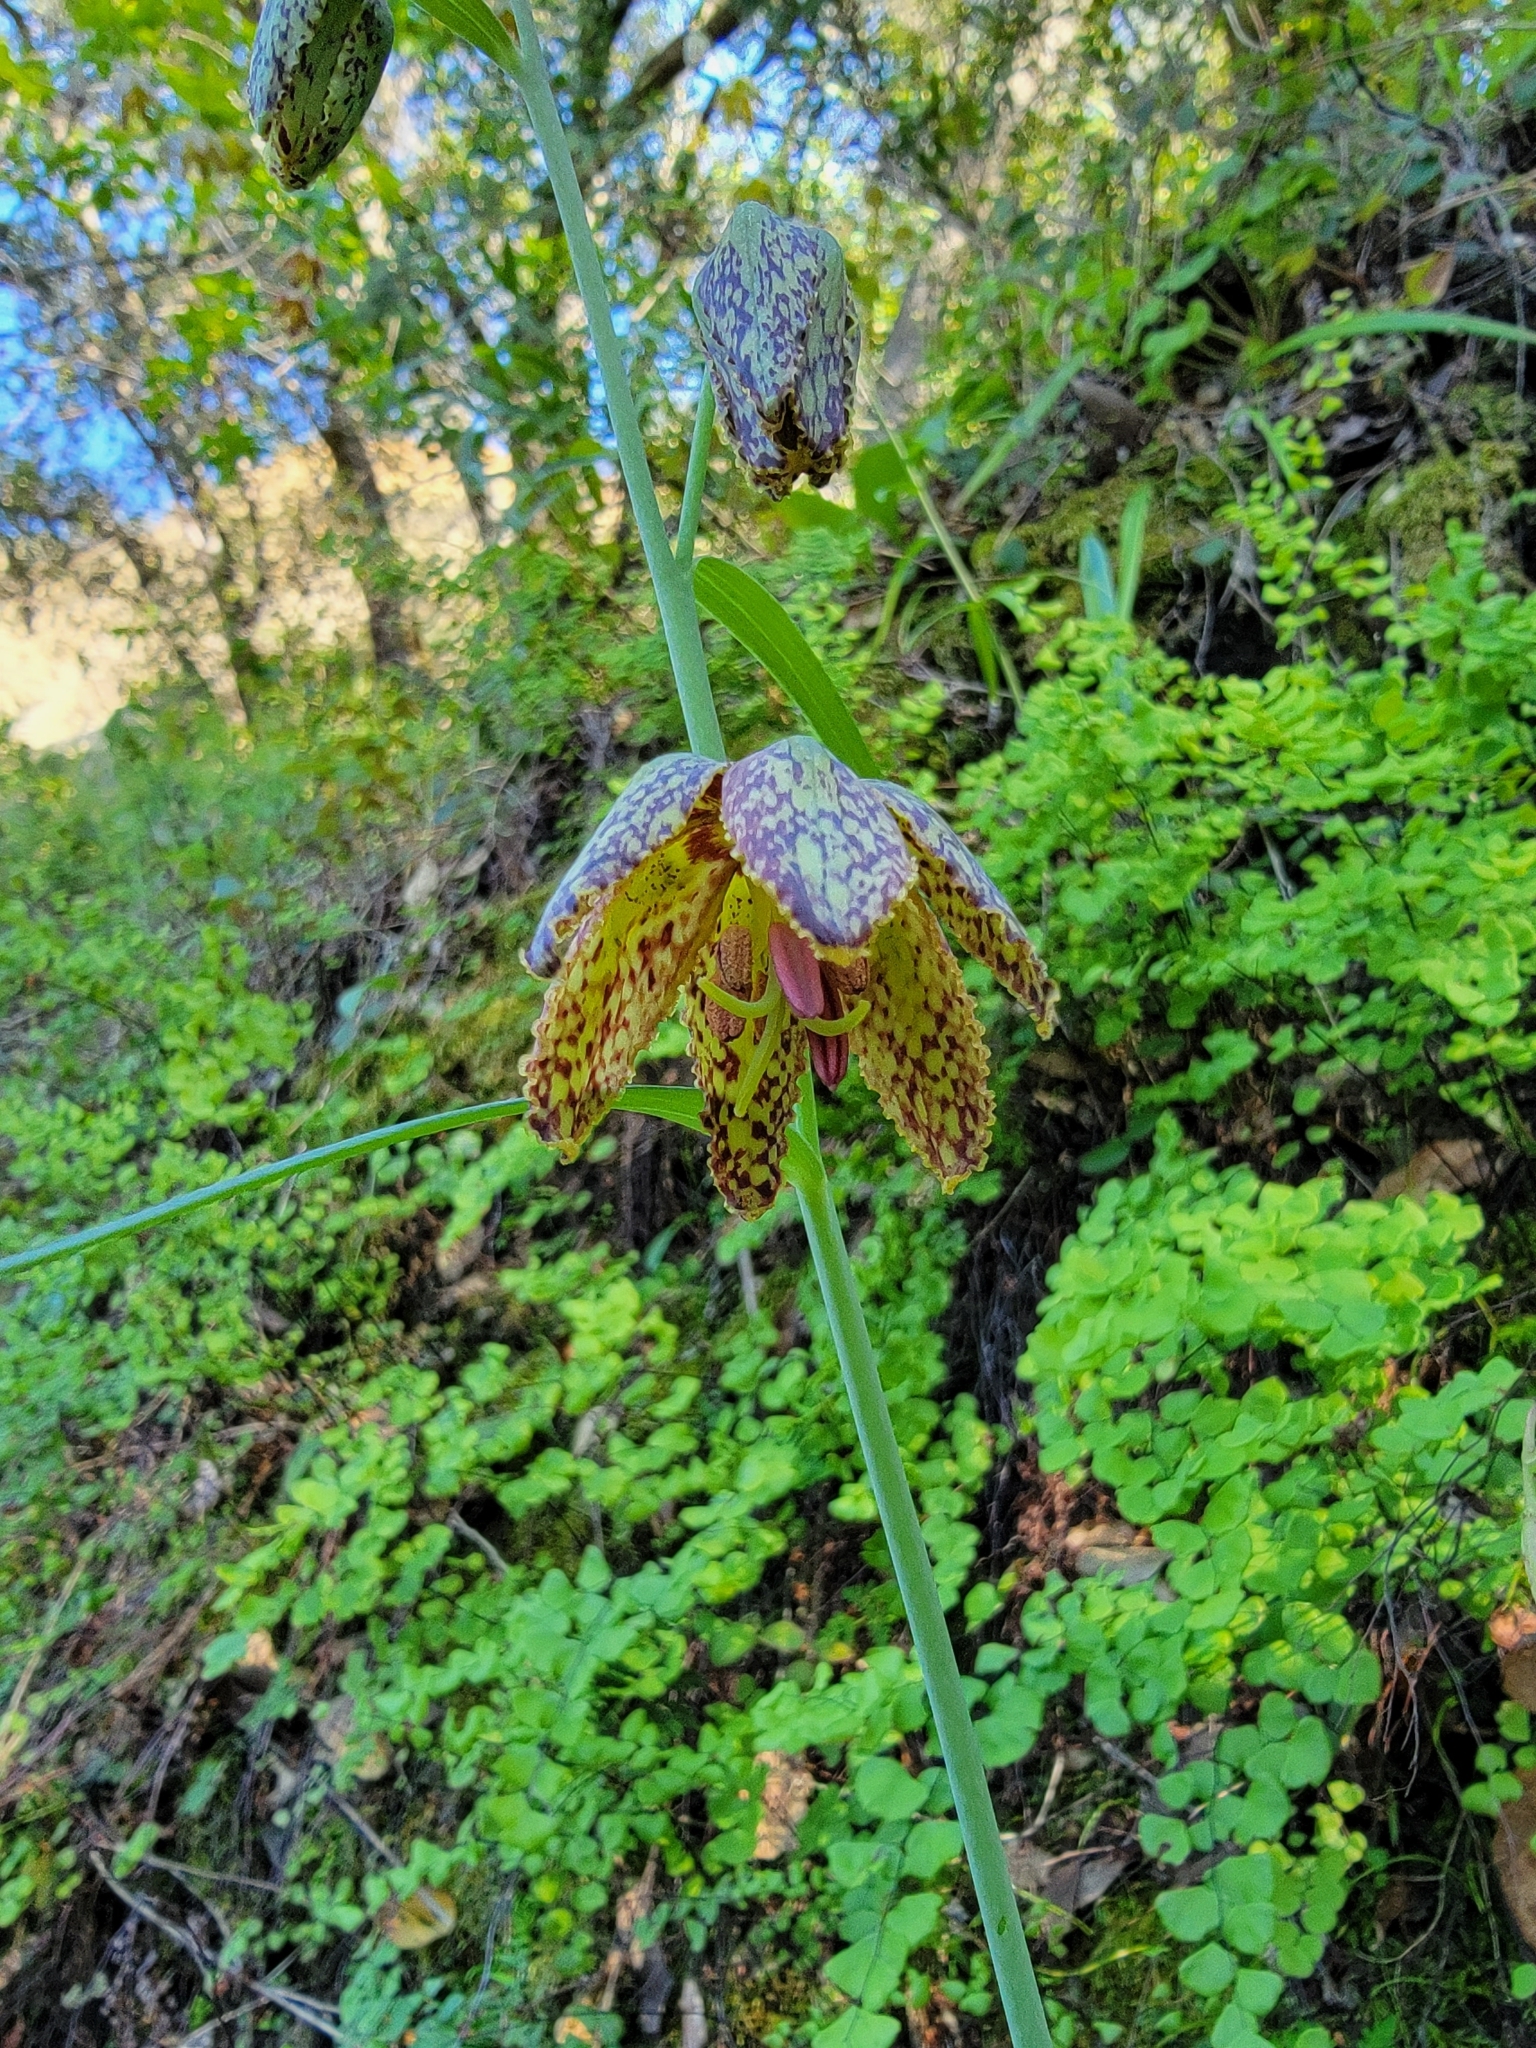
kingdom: Plantae
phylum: Tracheophyta
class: Liliopsida
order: Liliales
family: Liliaceae
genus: Fritillaria
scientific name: Fritillaria affinis
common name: Ojai fritillary
